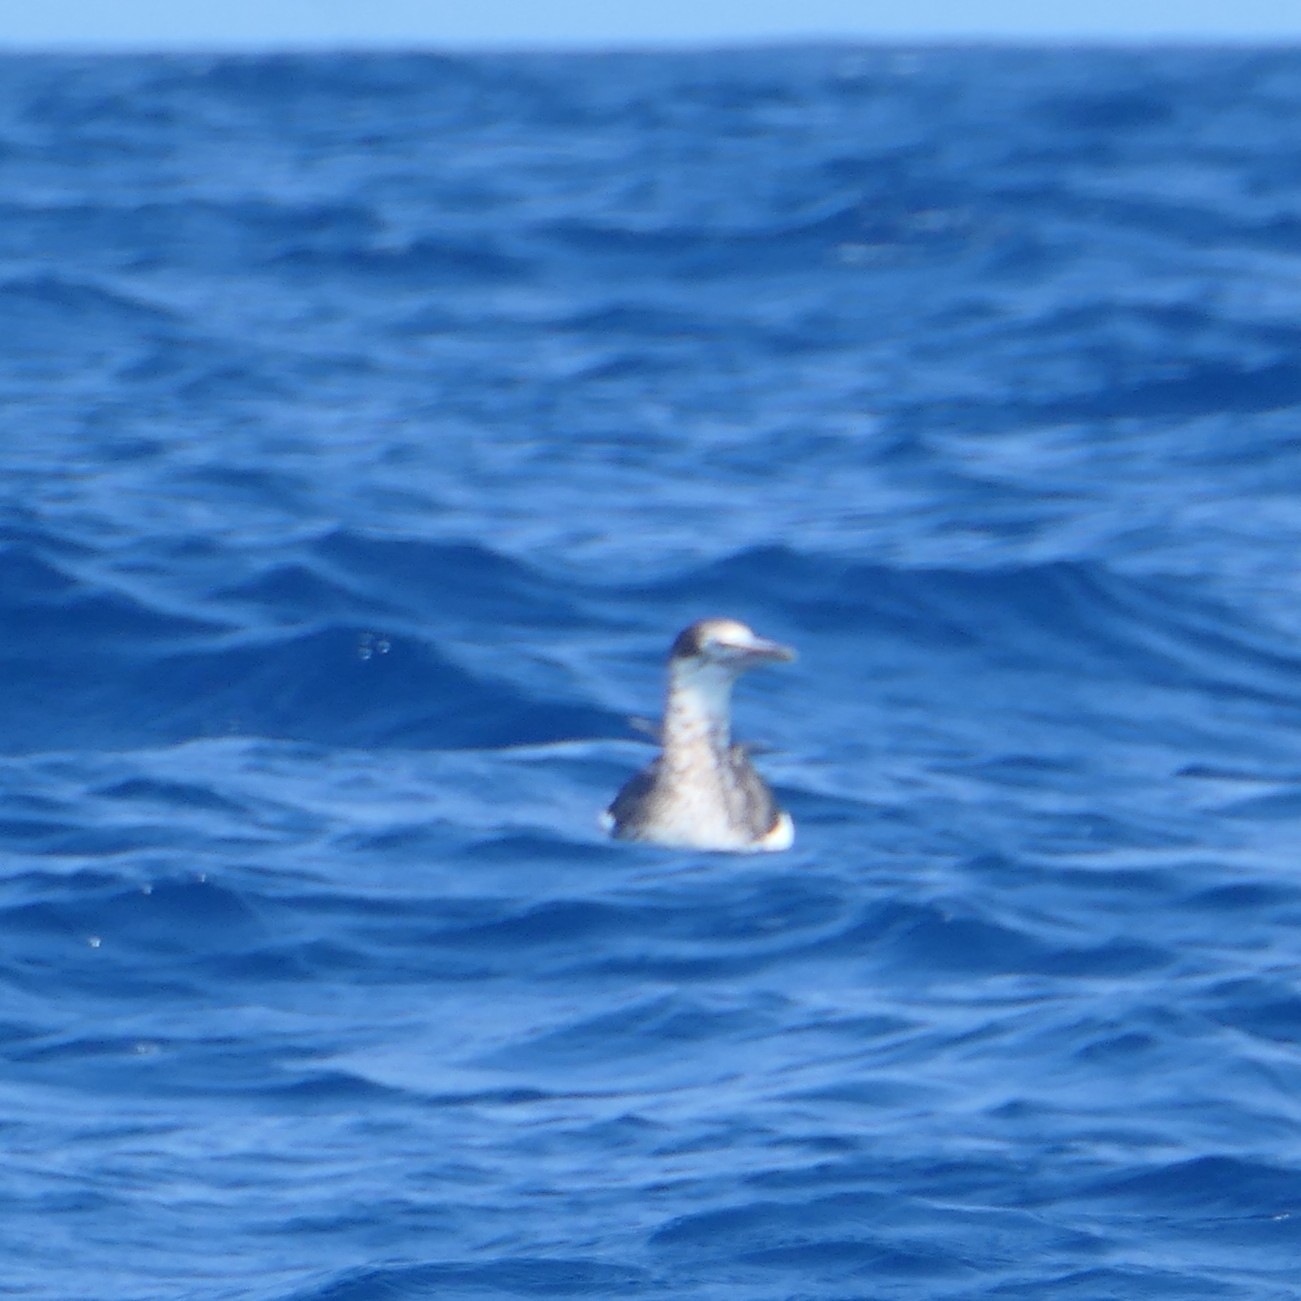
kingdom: Animalia
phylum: Chordata
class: Aves
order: Suliformes
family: Sulidae
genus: Morus
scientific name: Morus bassanus
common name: Northern gannet
